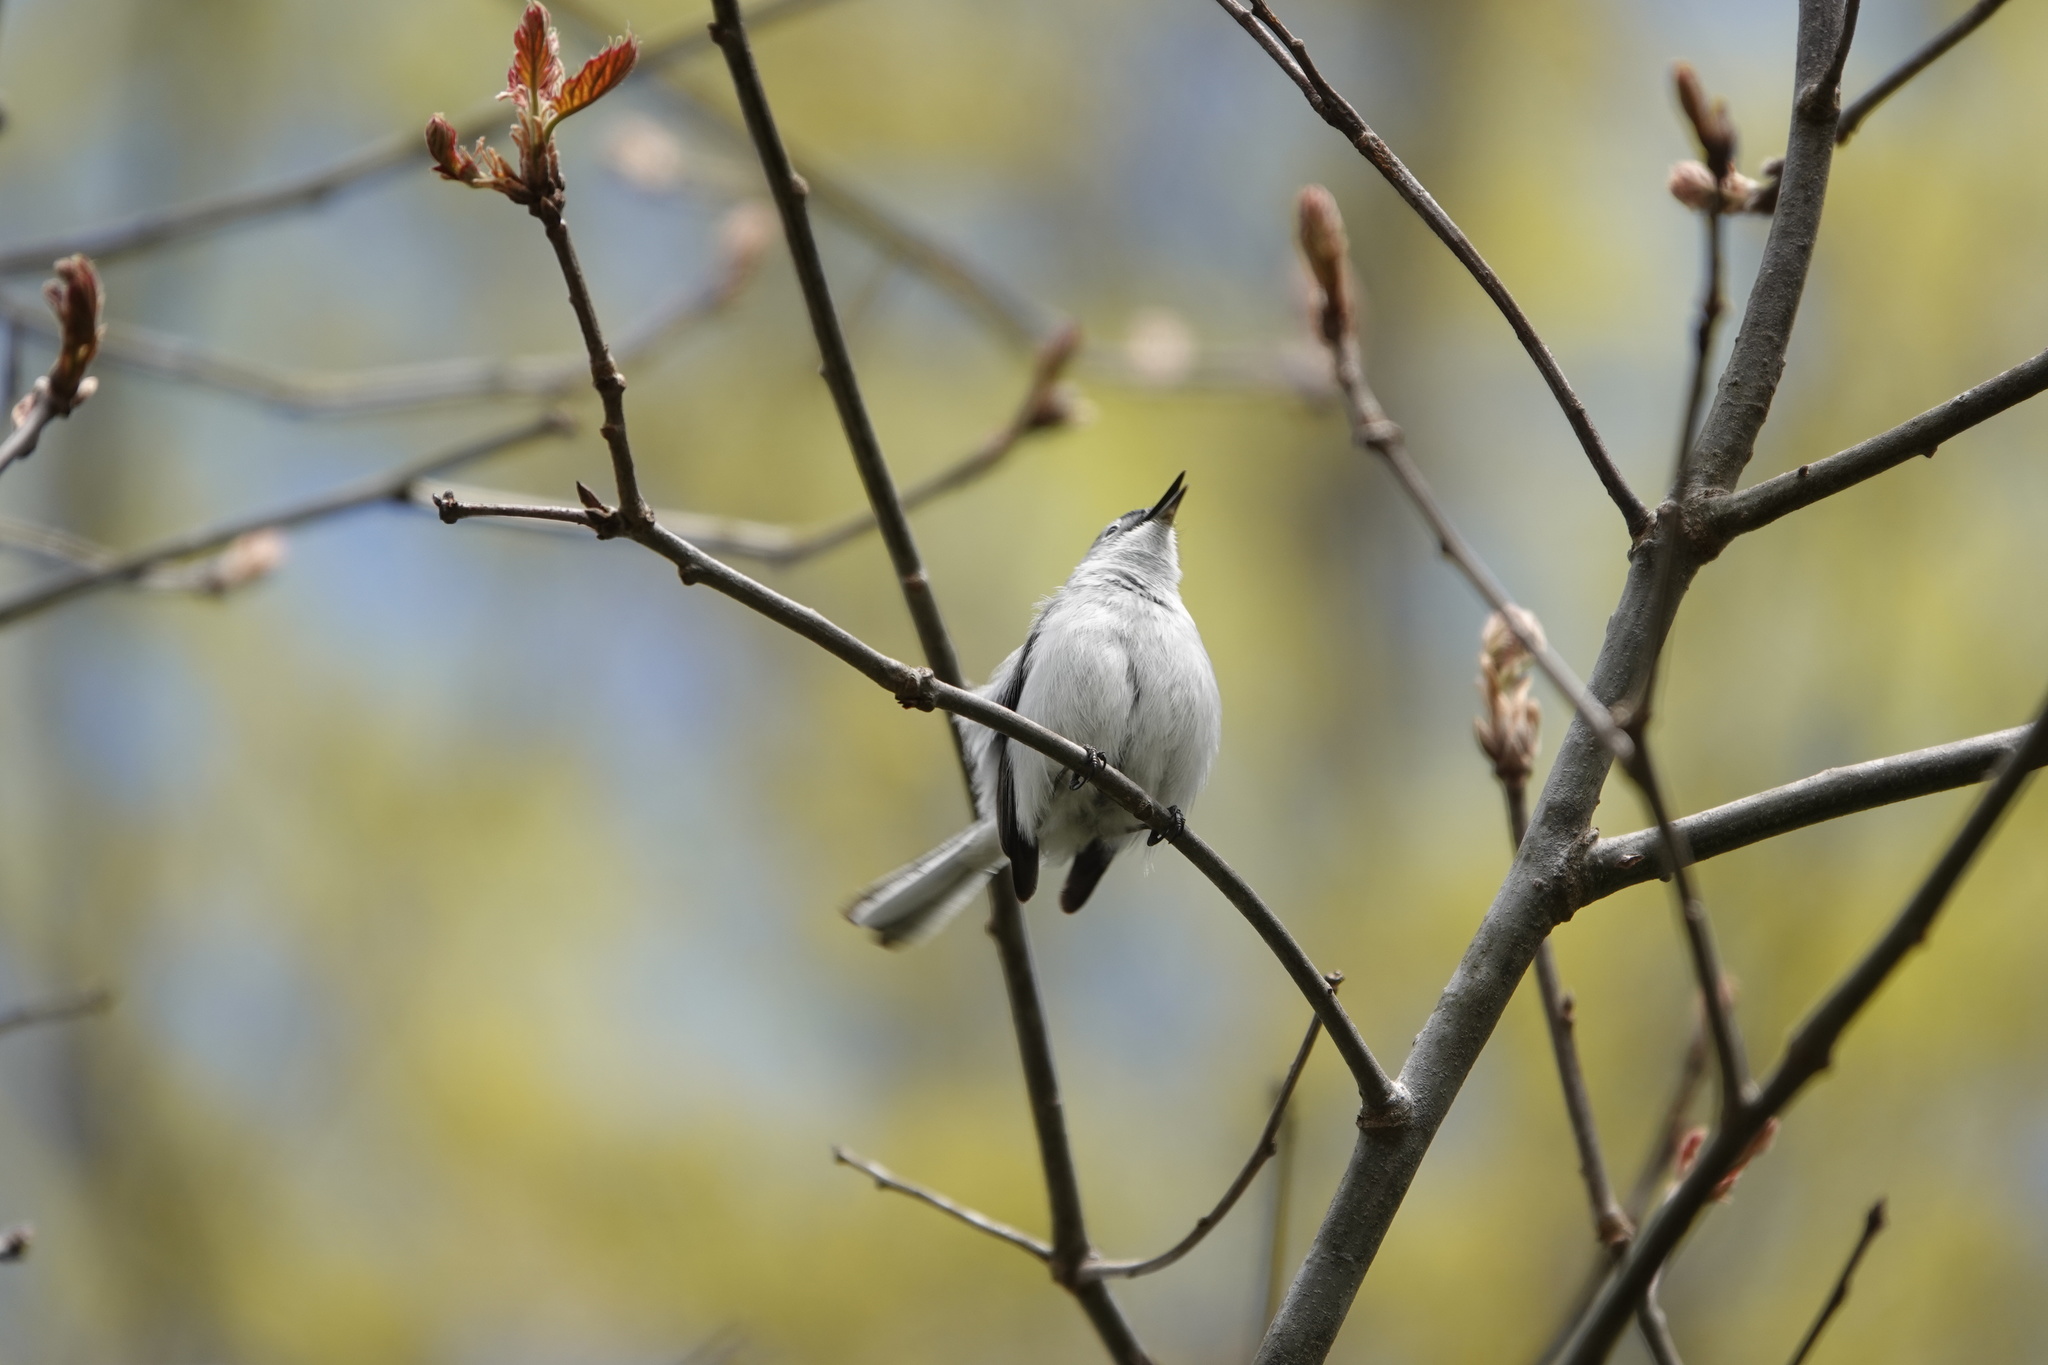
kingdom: Animalia
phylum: Chordata
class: Aves
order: Passeriformes
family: Polioptilidae
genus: Polioptila
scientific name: Polioptila caerulea
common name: Blue-gray gnatcatcher
